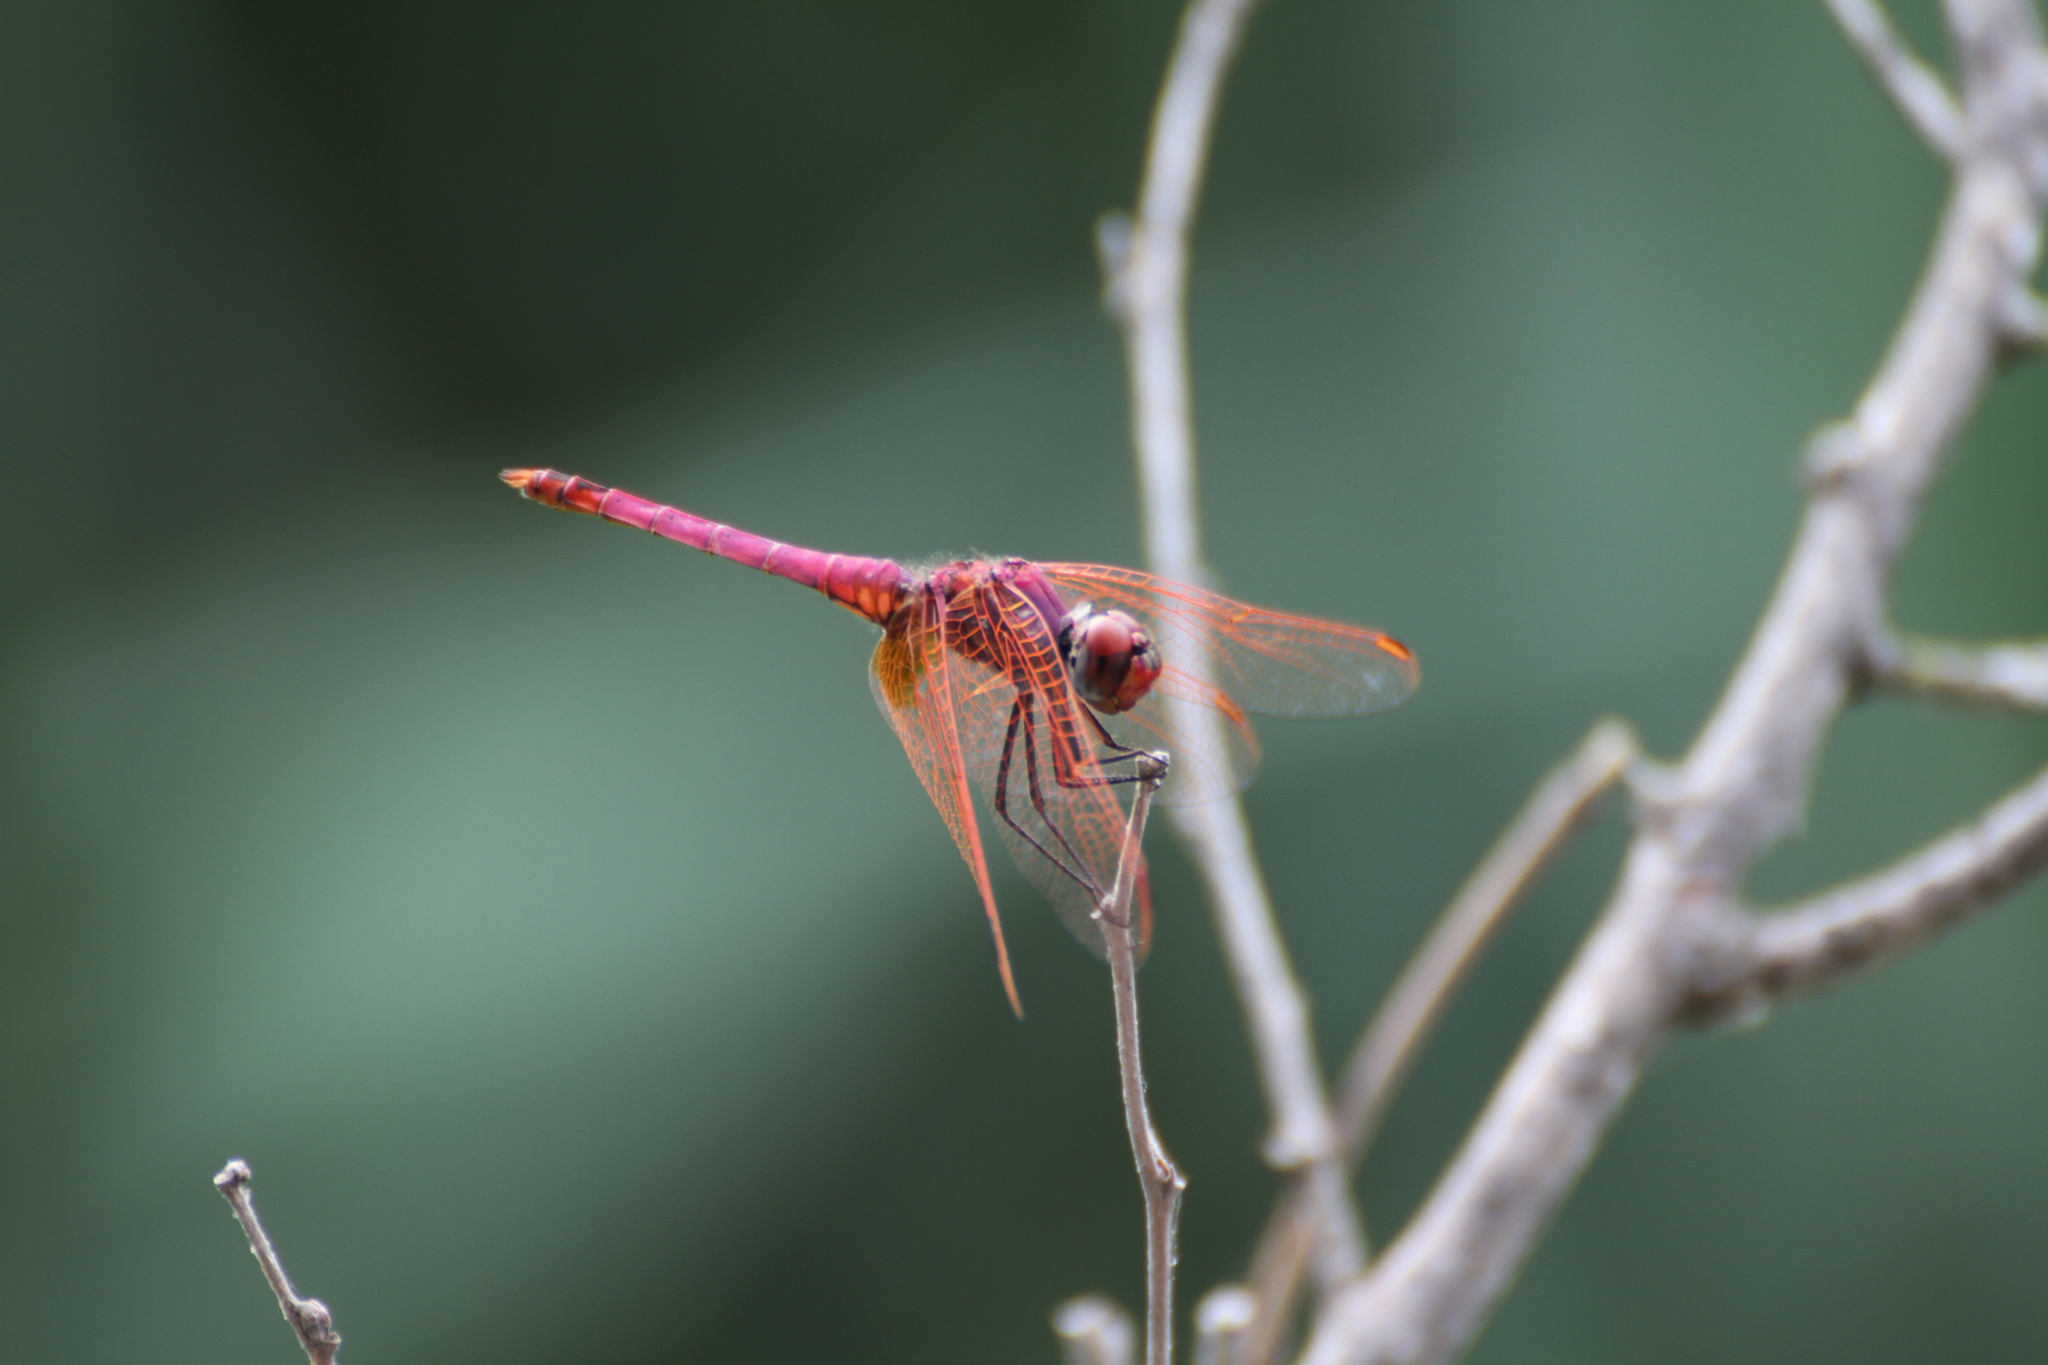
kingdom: Animalia
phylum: Arthropoda
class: Insecta
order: Odonata
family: Libellulidae
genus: Trithemis
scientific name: Trithemis annulata
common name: Violet dropwing
